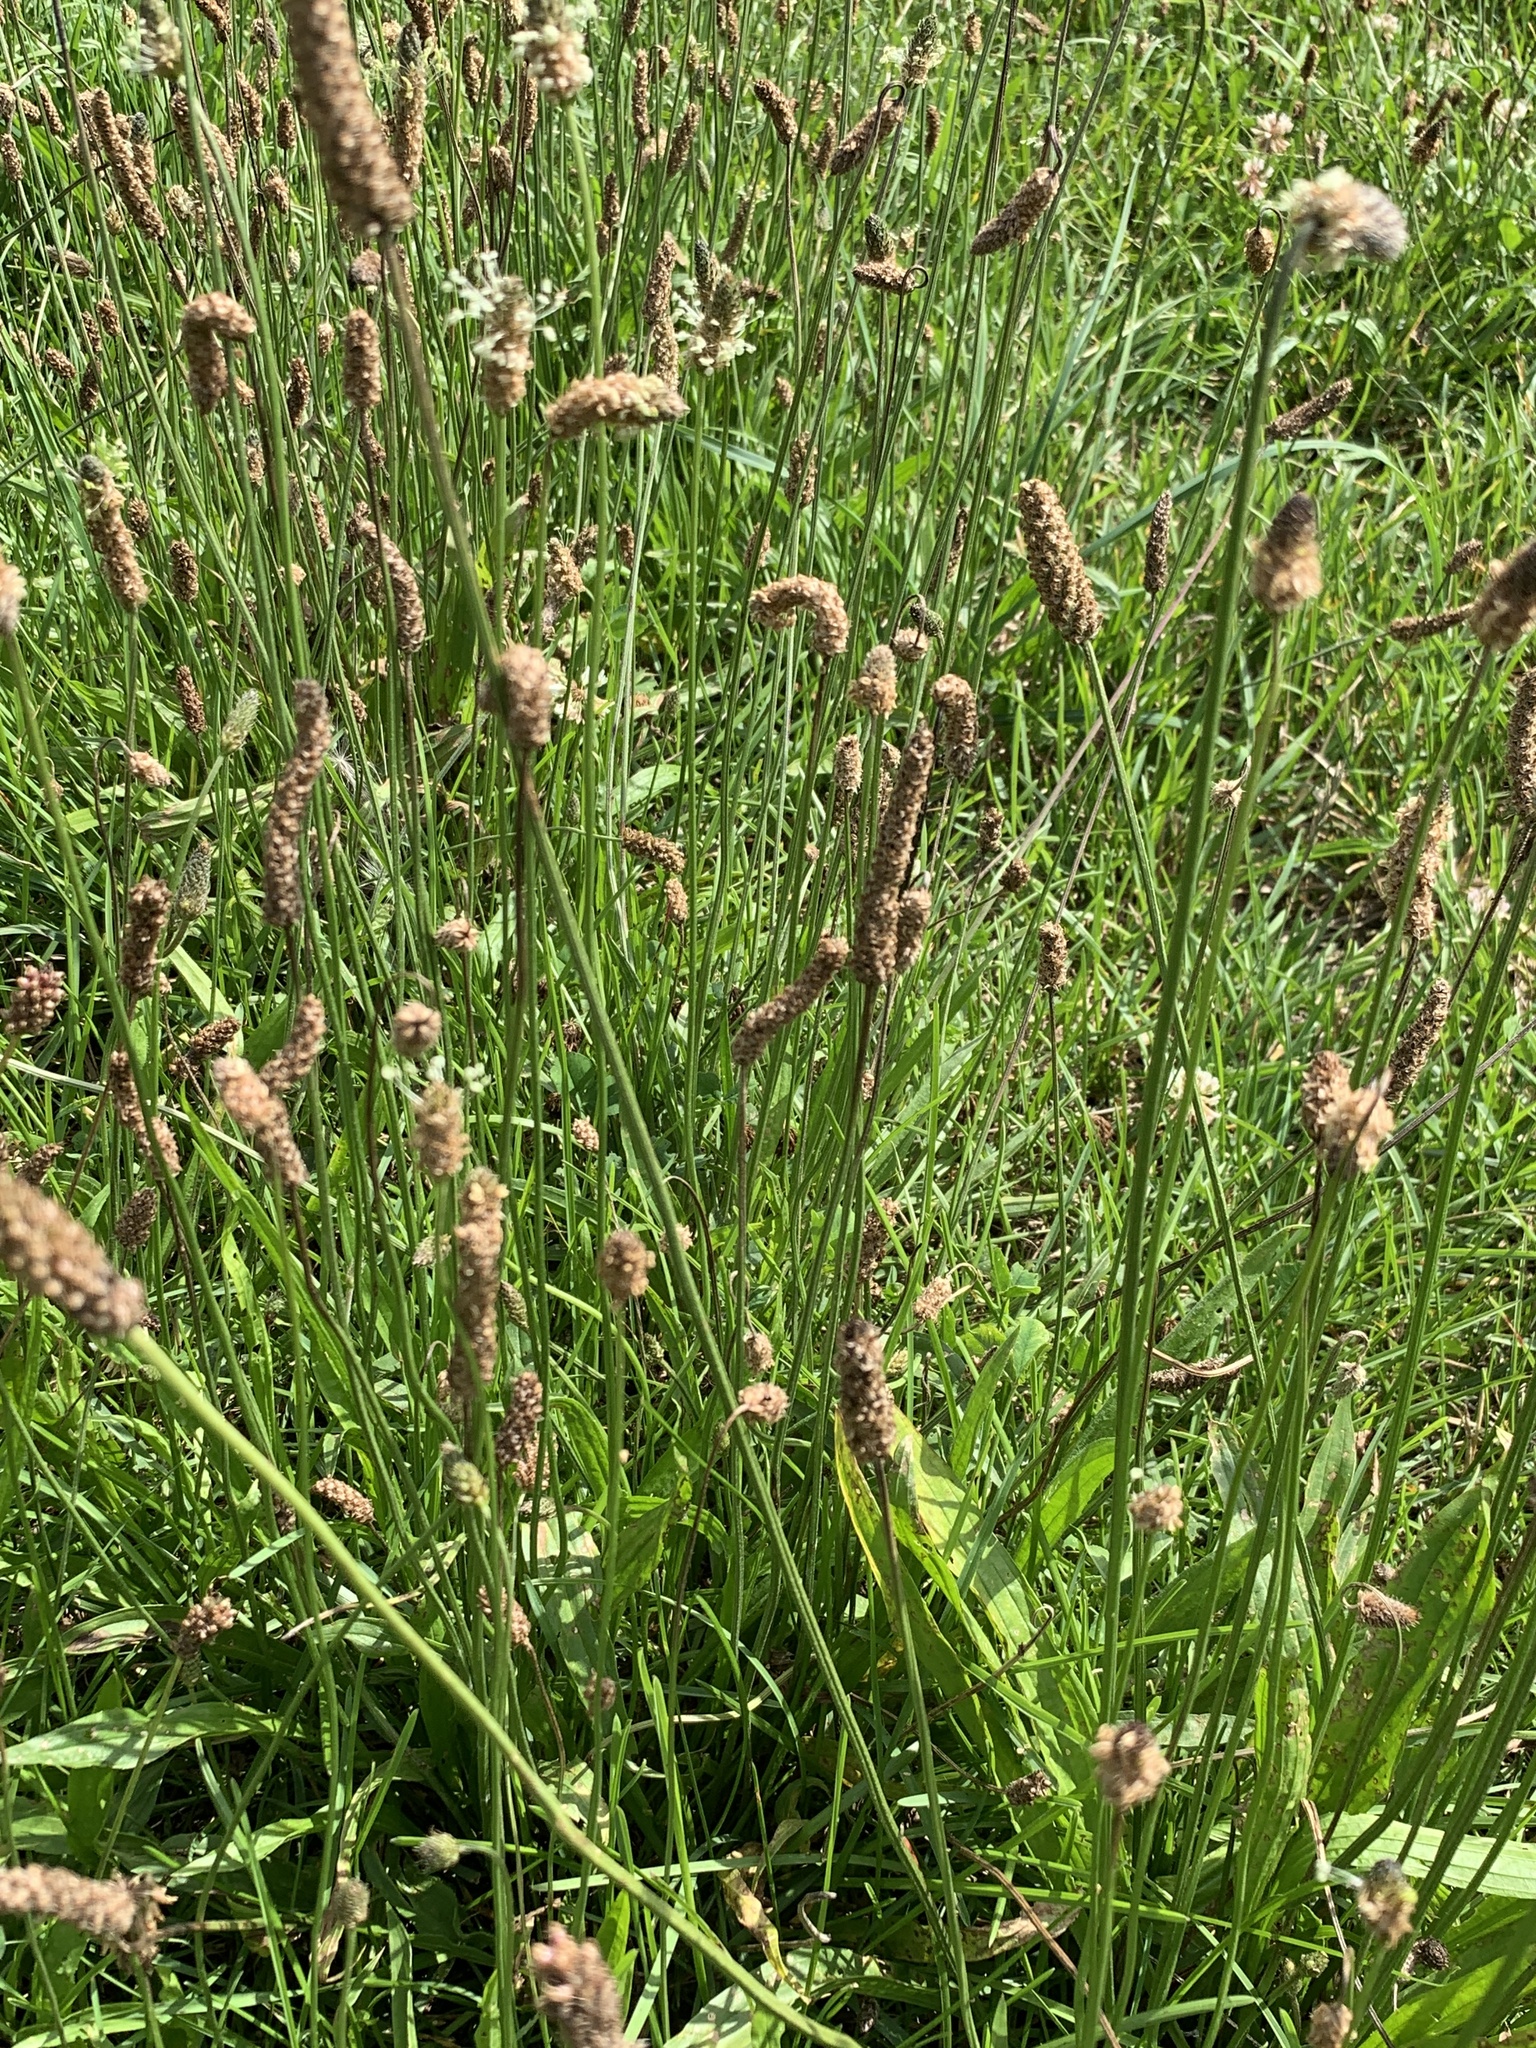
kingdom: Plantae
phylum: Tracheophyta
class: Magnoliopsida
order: Lamiales
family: Plantaginaceae
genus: Plantago
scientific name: Plantago lanceolata
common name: Ribwort plantain
